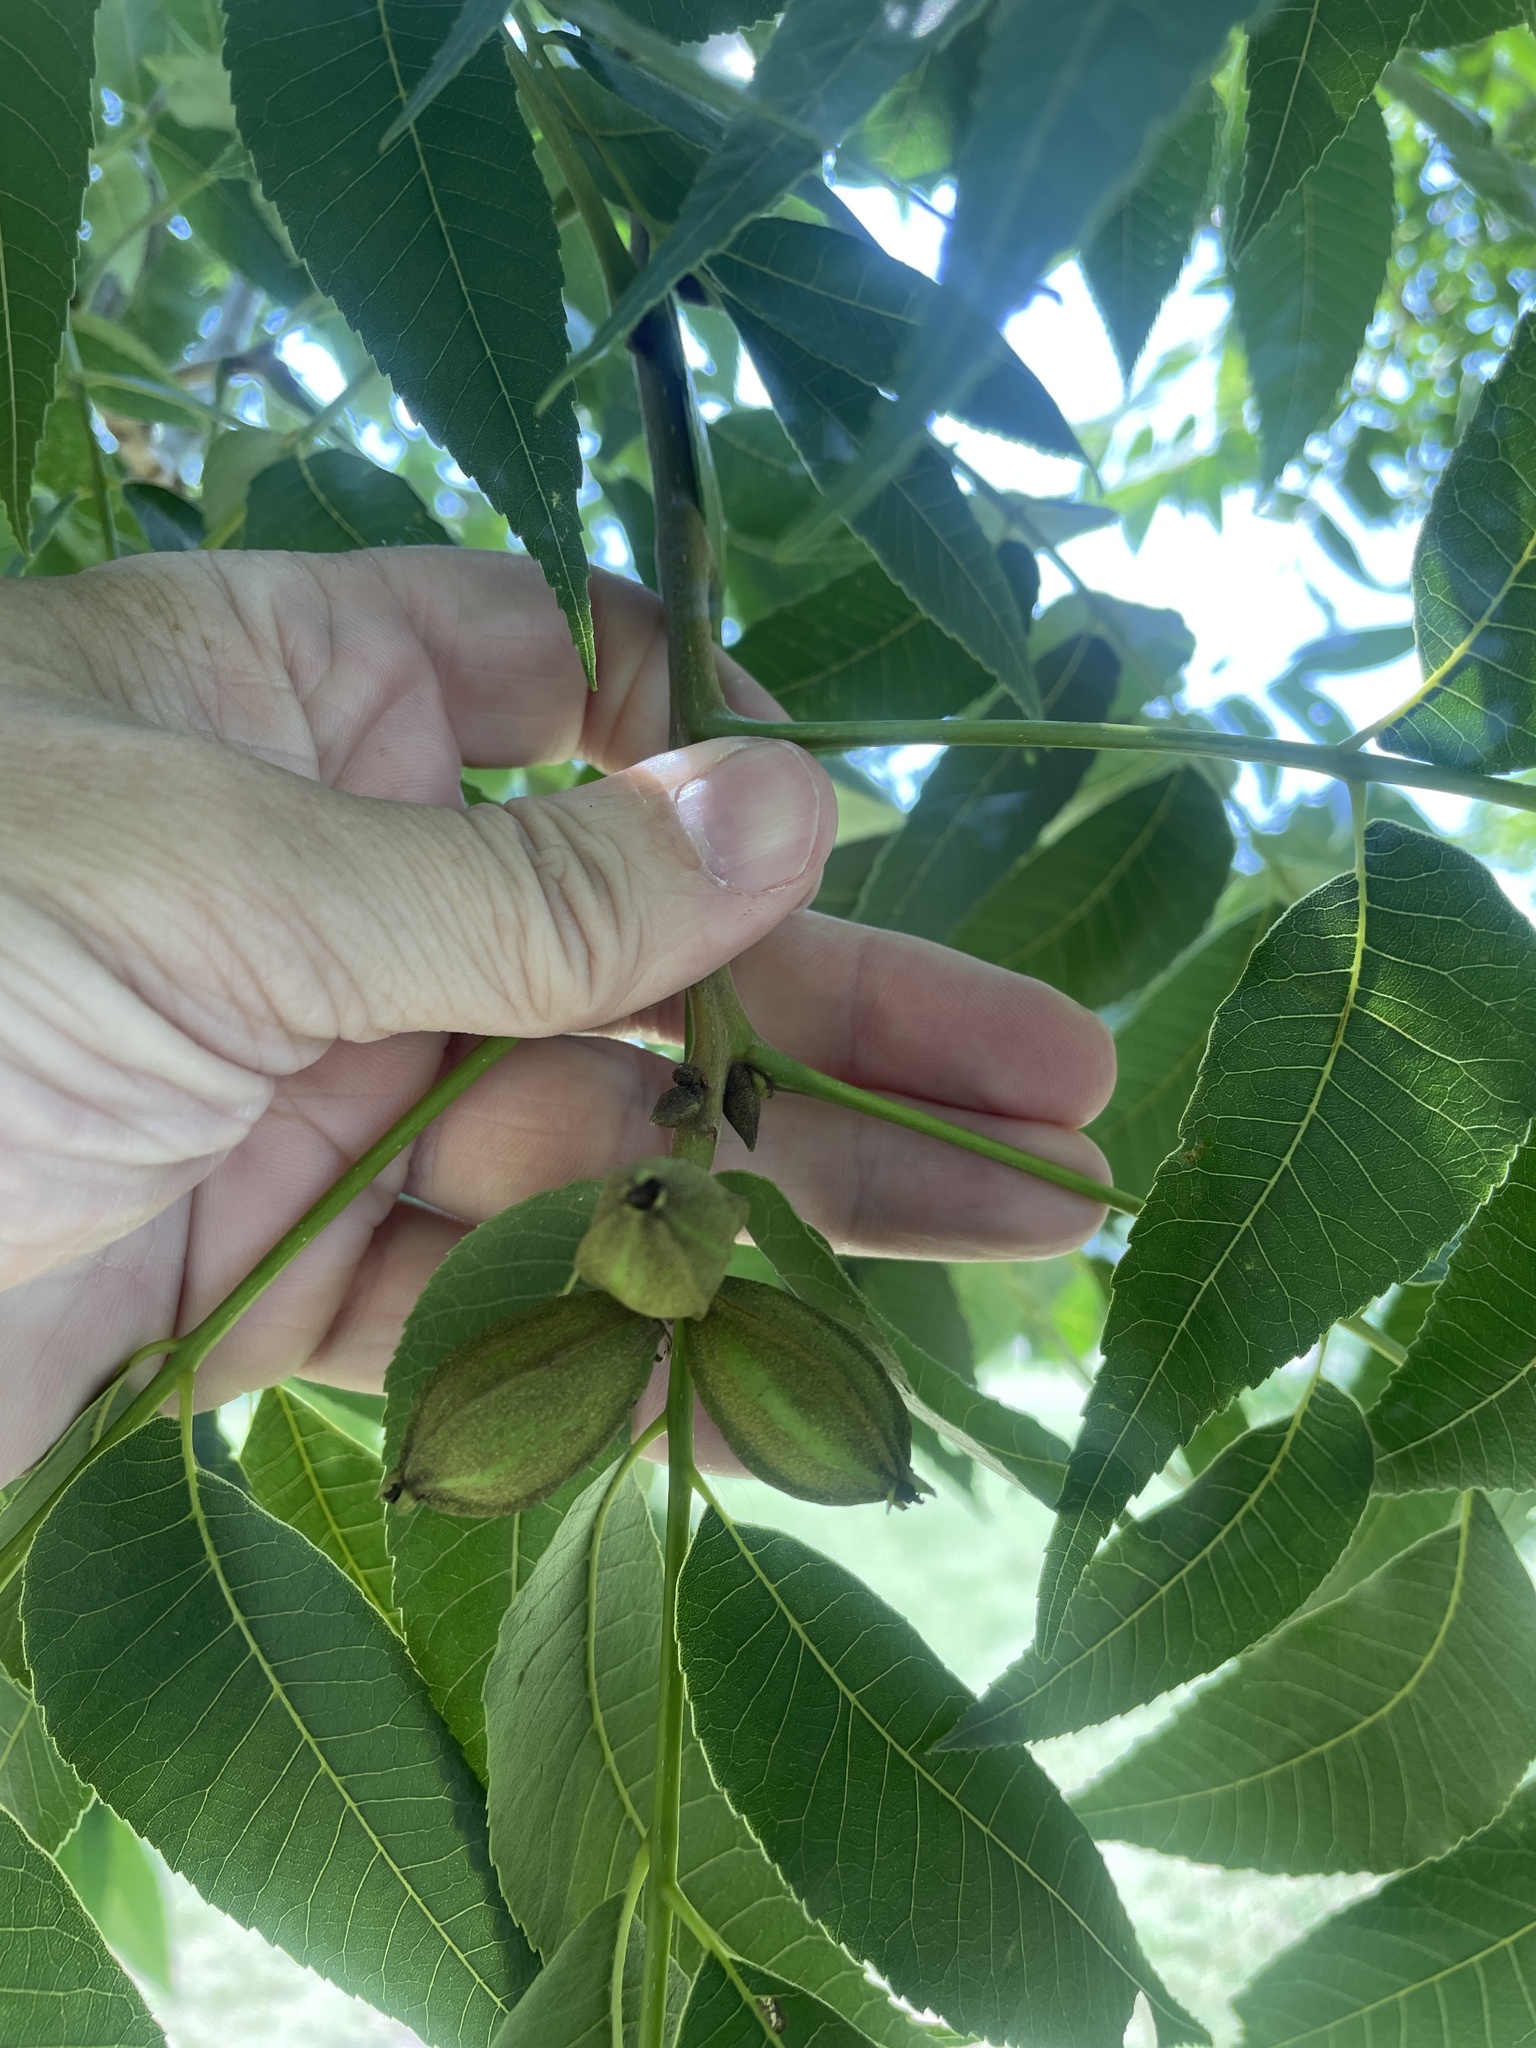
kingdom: Plantae
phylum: Tracheophyta
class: Magnoliopsida
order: Fagales
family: Juglandaceae
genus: Carya
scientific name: Carya illinoinensis
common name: Pecan
